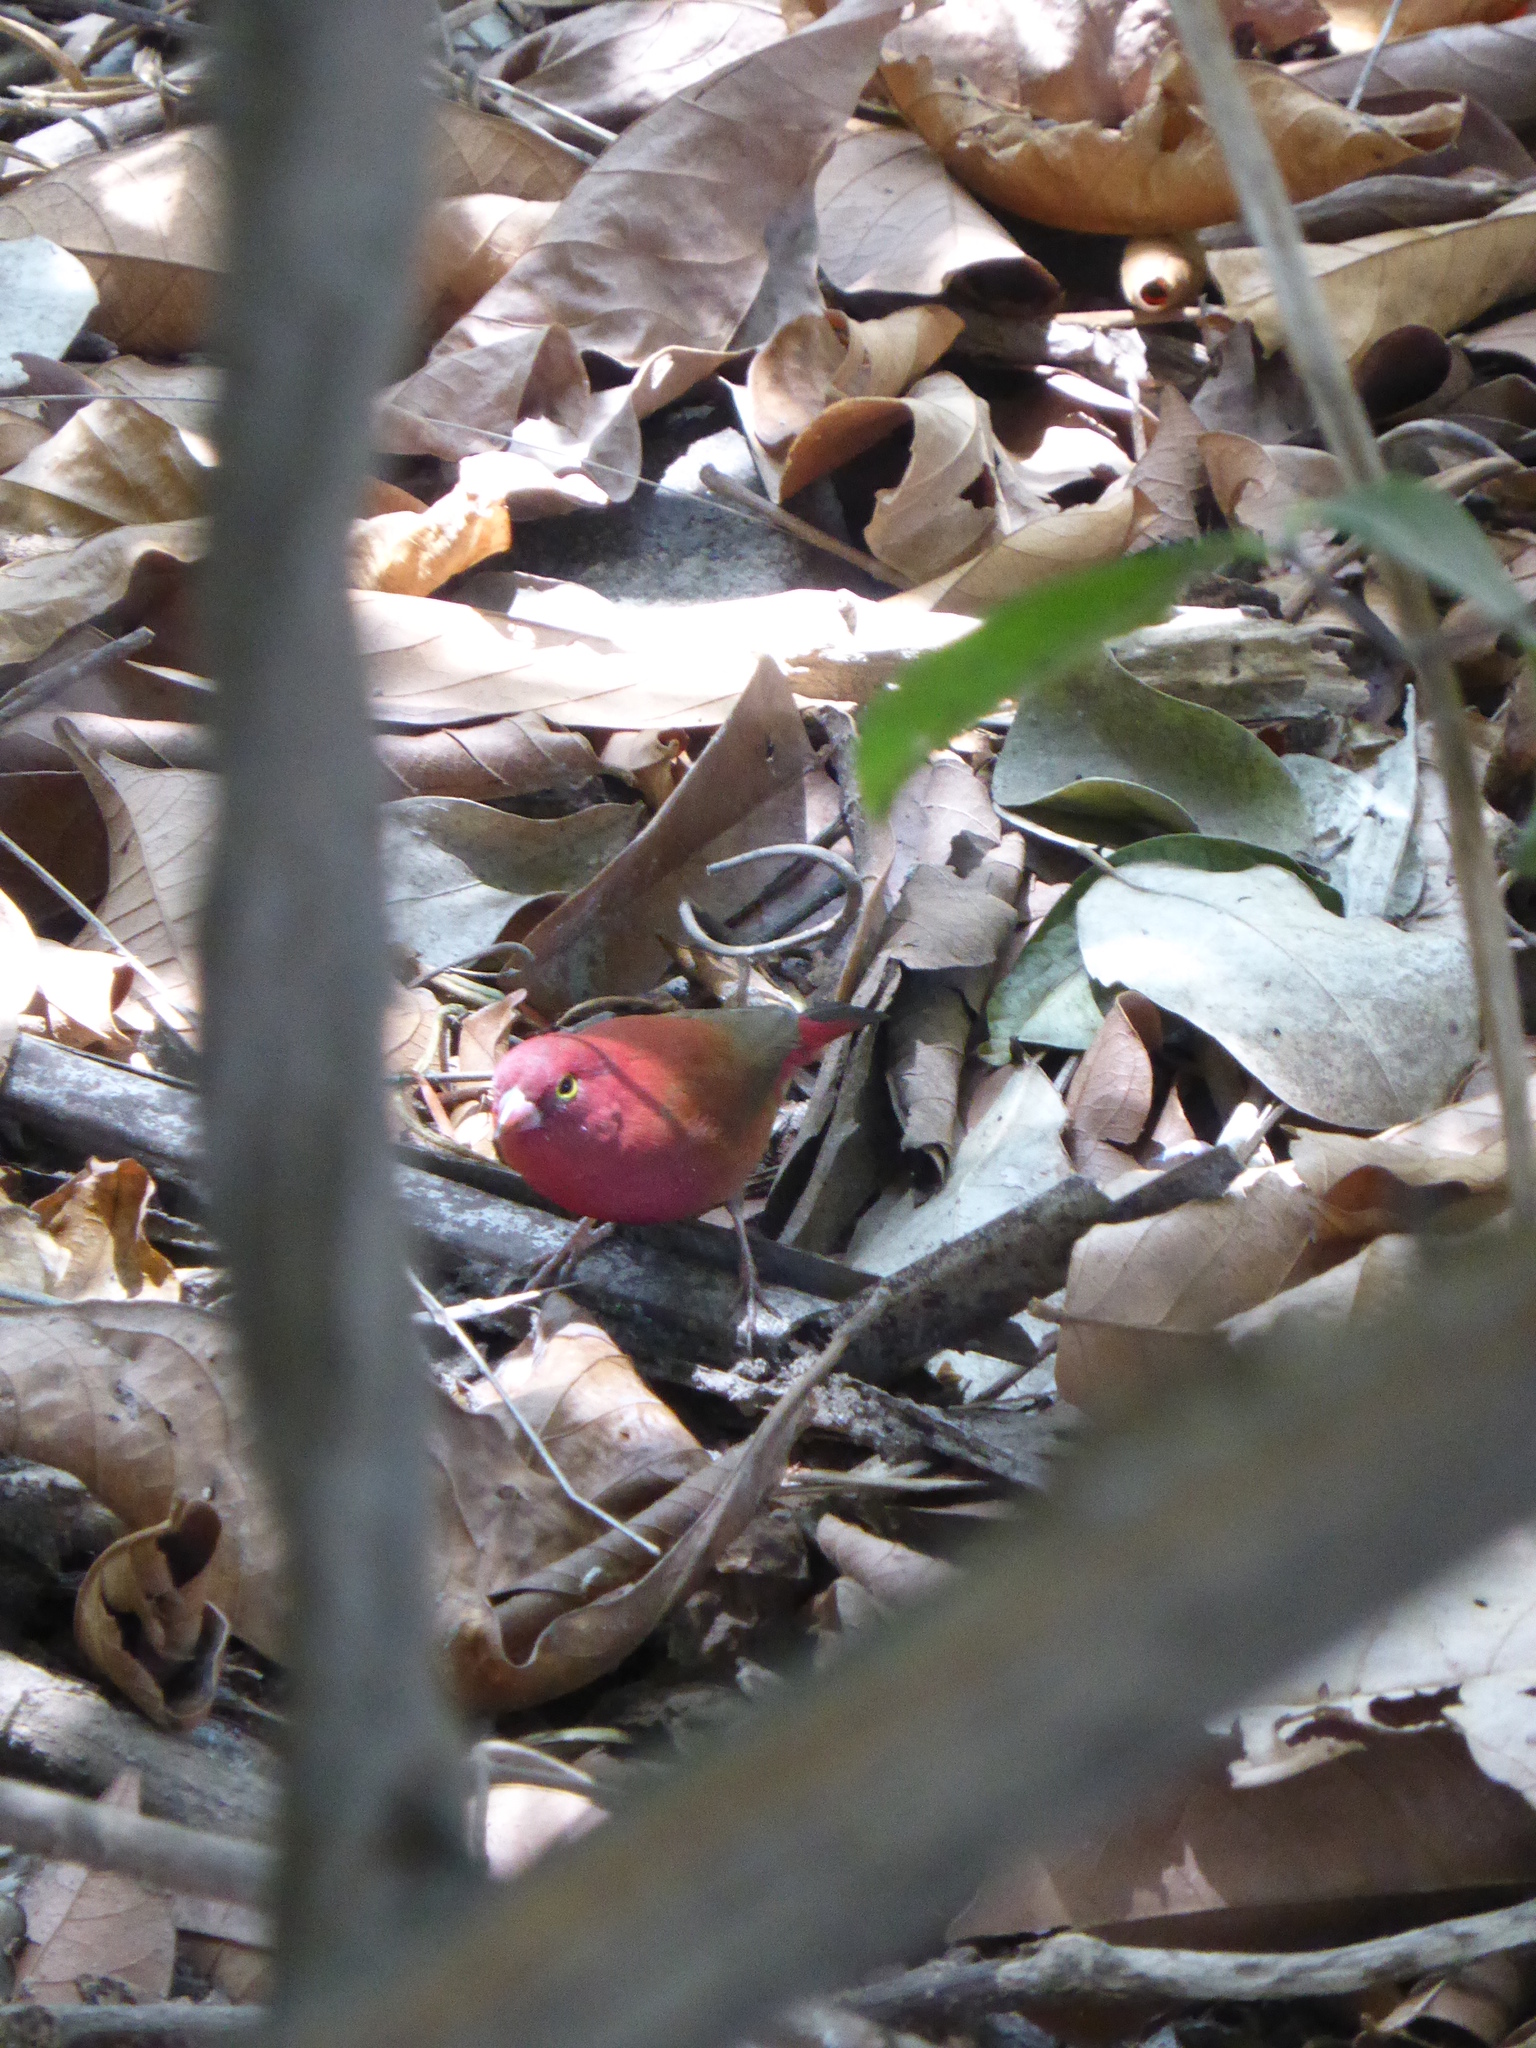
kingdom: Animalia
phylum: Chordata
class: Aves
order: Passeriformes
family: Estrildidae
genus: Lagonosticta
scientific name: Lagonosticta senegala
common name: Red-billed firefinch
